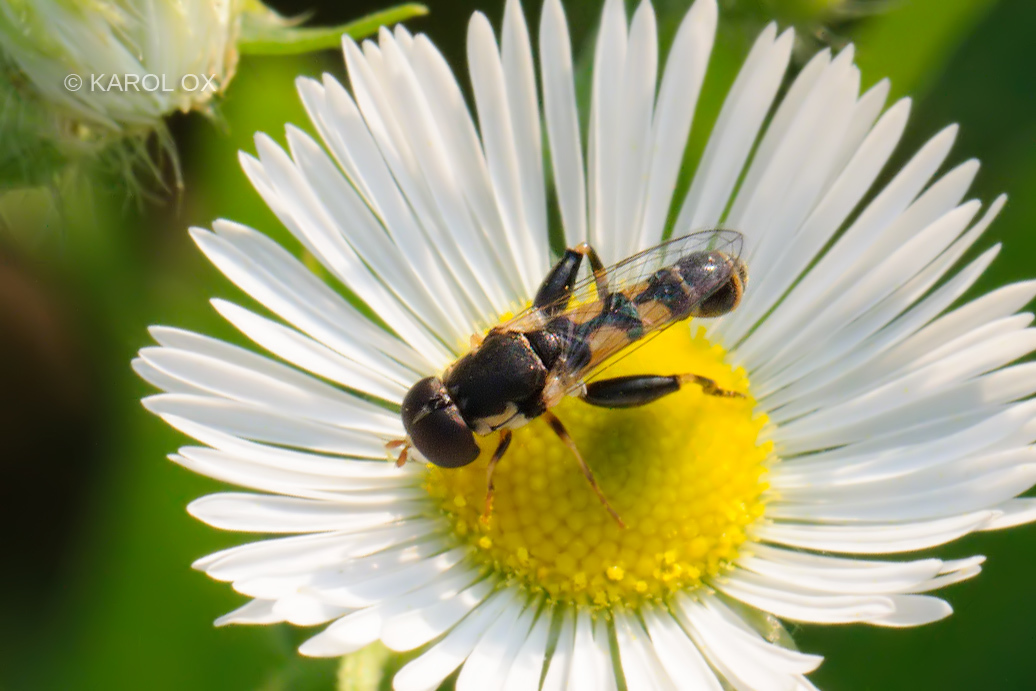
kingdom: Animalia
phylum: Arthropoda
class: Insecta
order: Diptera
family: Syrphidae
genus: Syritta
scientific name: Syritta pipiens
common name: Hover fly
